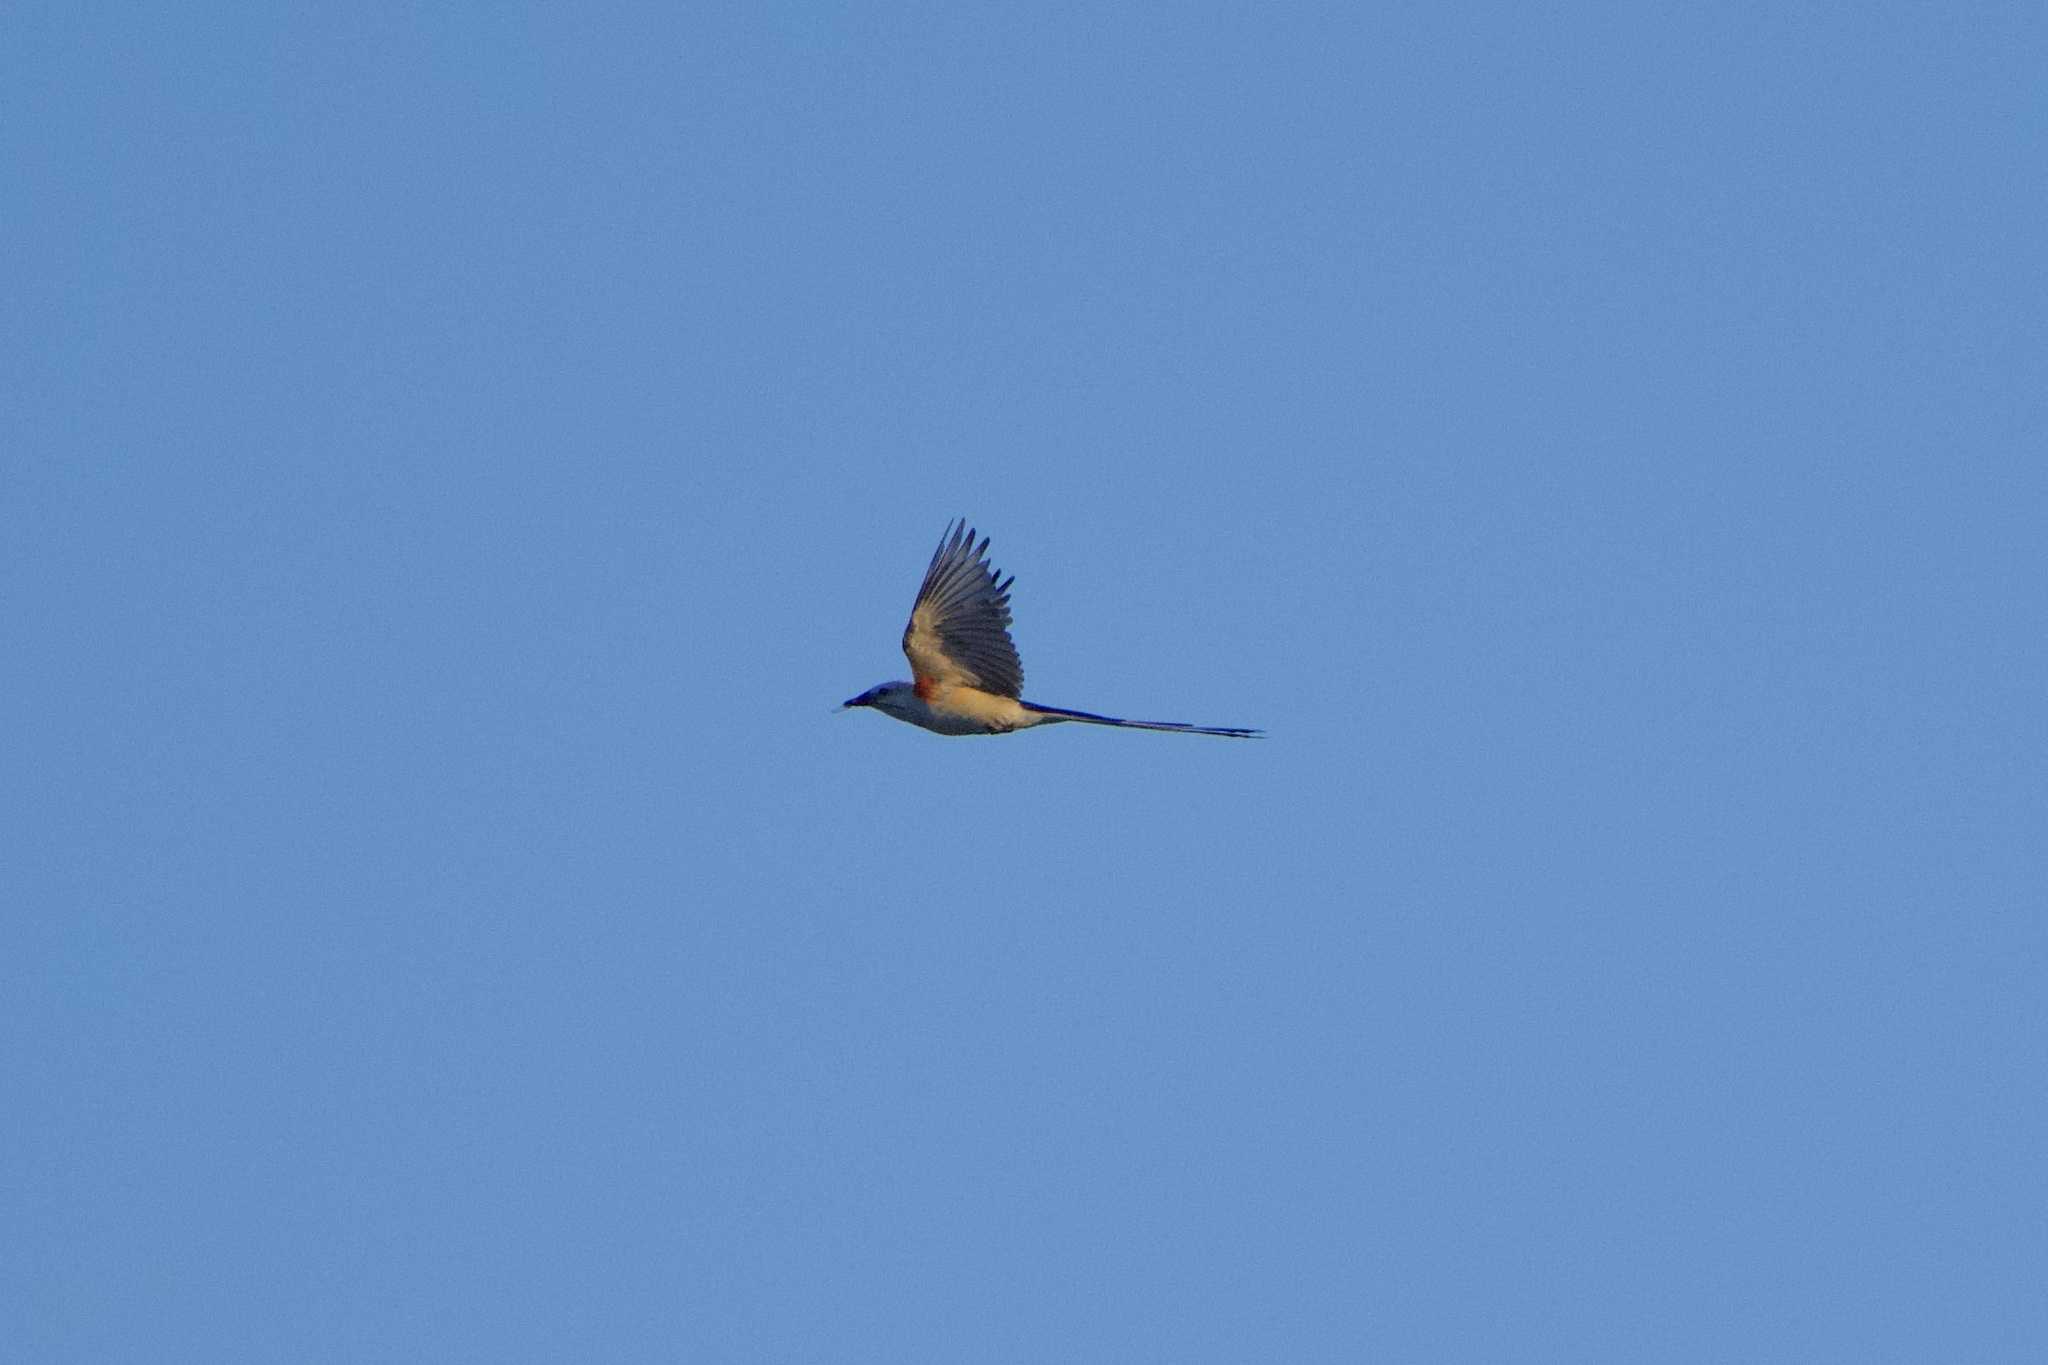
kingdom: Animalia
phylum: Chordata
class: Aves
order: Passeriformes
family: Tyrannidae
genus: Tyrannus
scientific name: Tyrannus forficatus
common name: Scissor-tailed flycatcher
